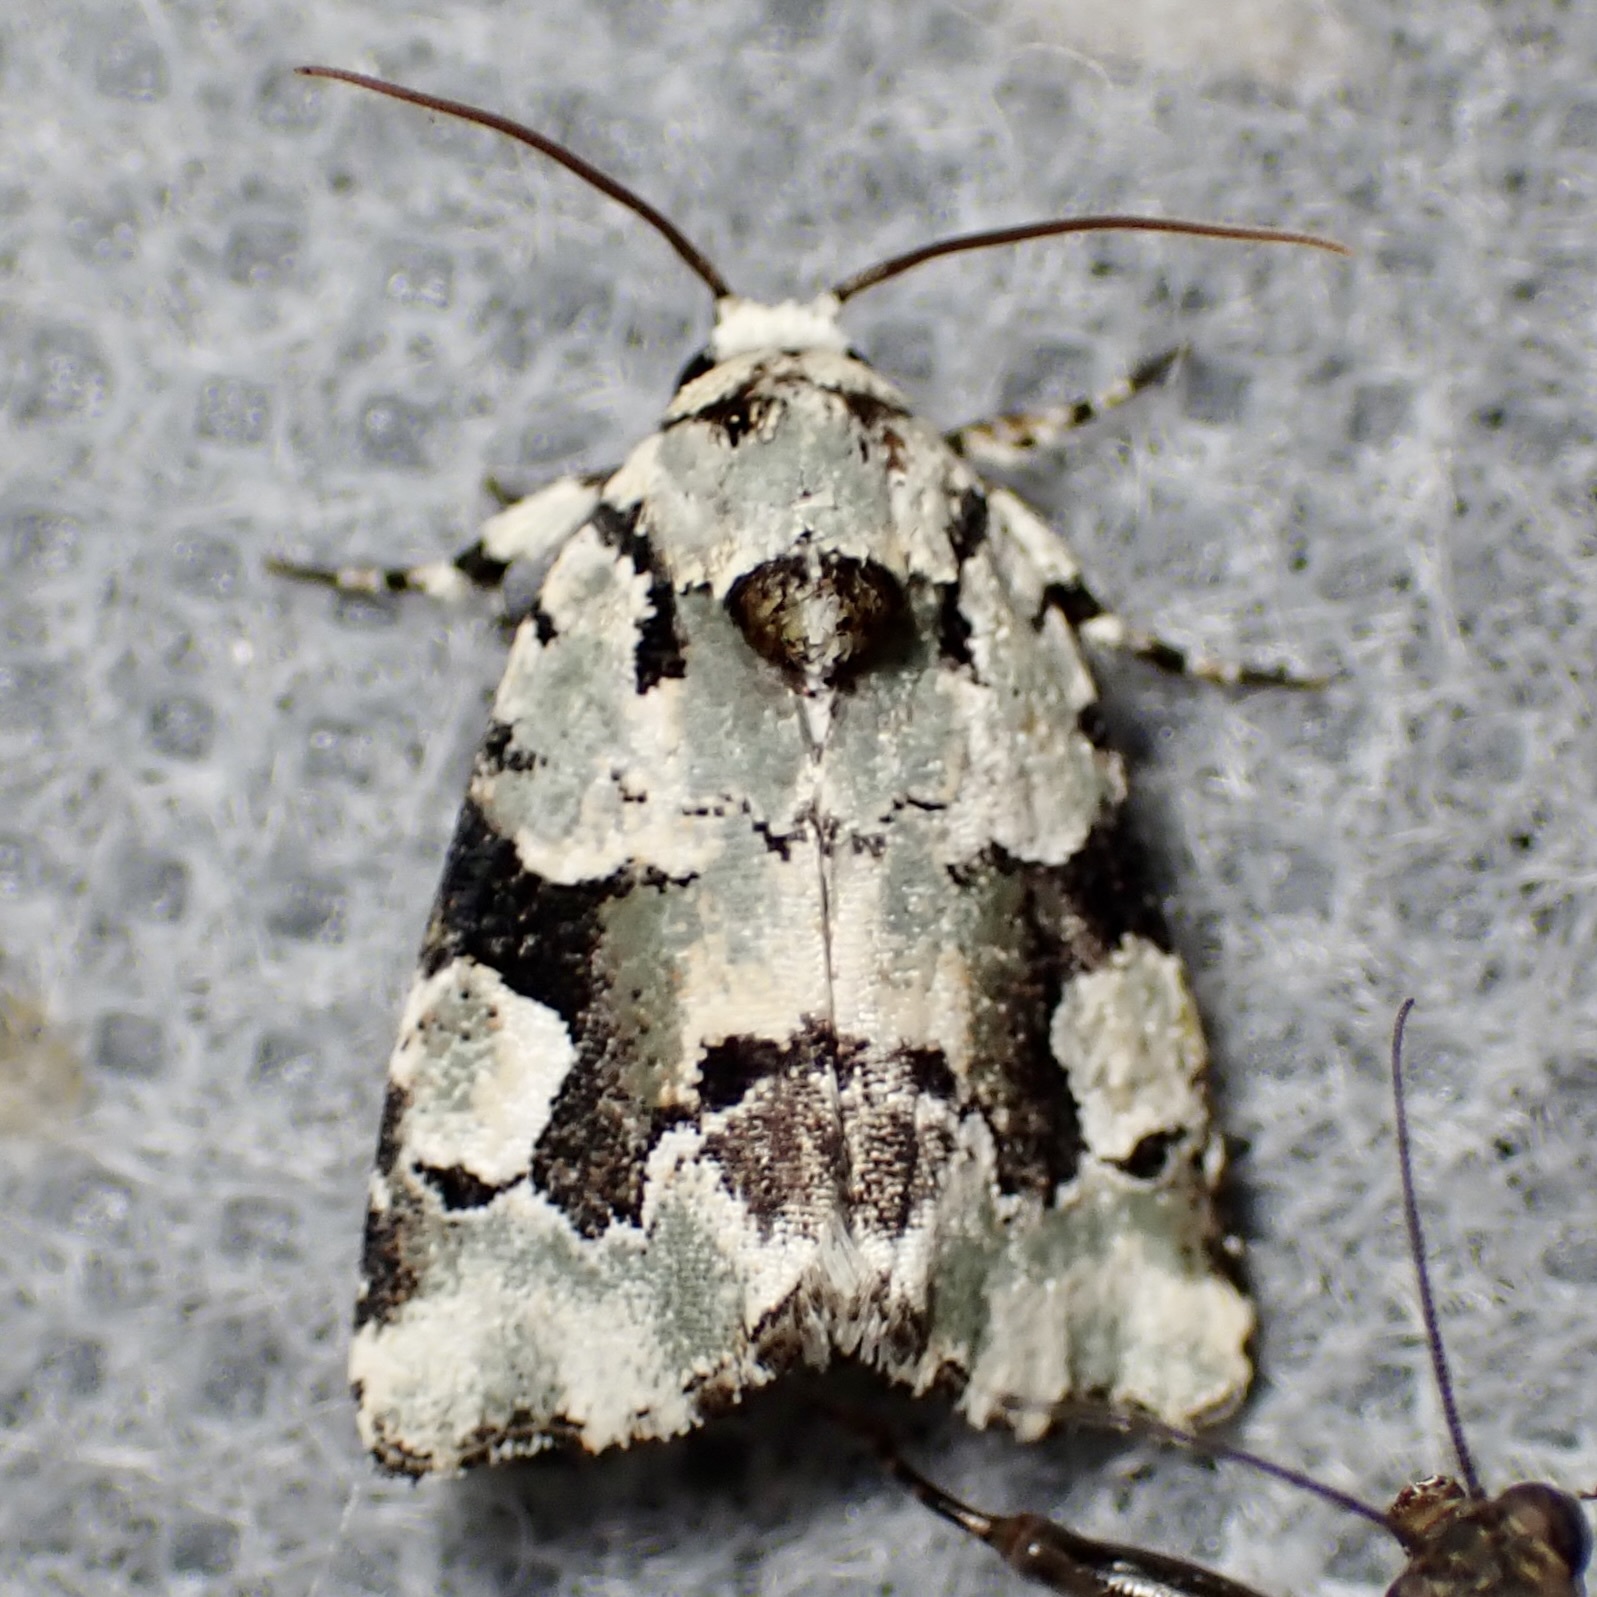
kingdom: Animalia
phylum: Arthropoda
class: Insecta
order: Lepidoptera
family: Noctuidae
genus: Emarginea
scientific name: Emarginea percara
